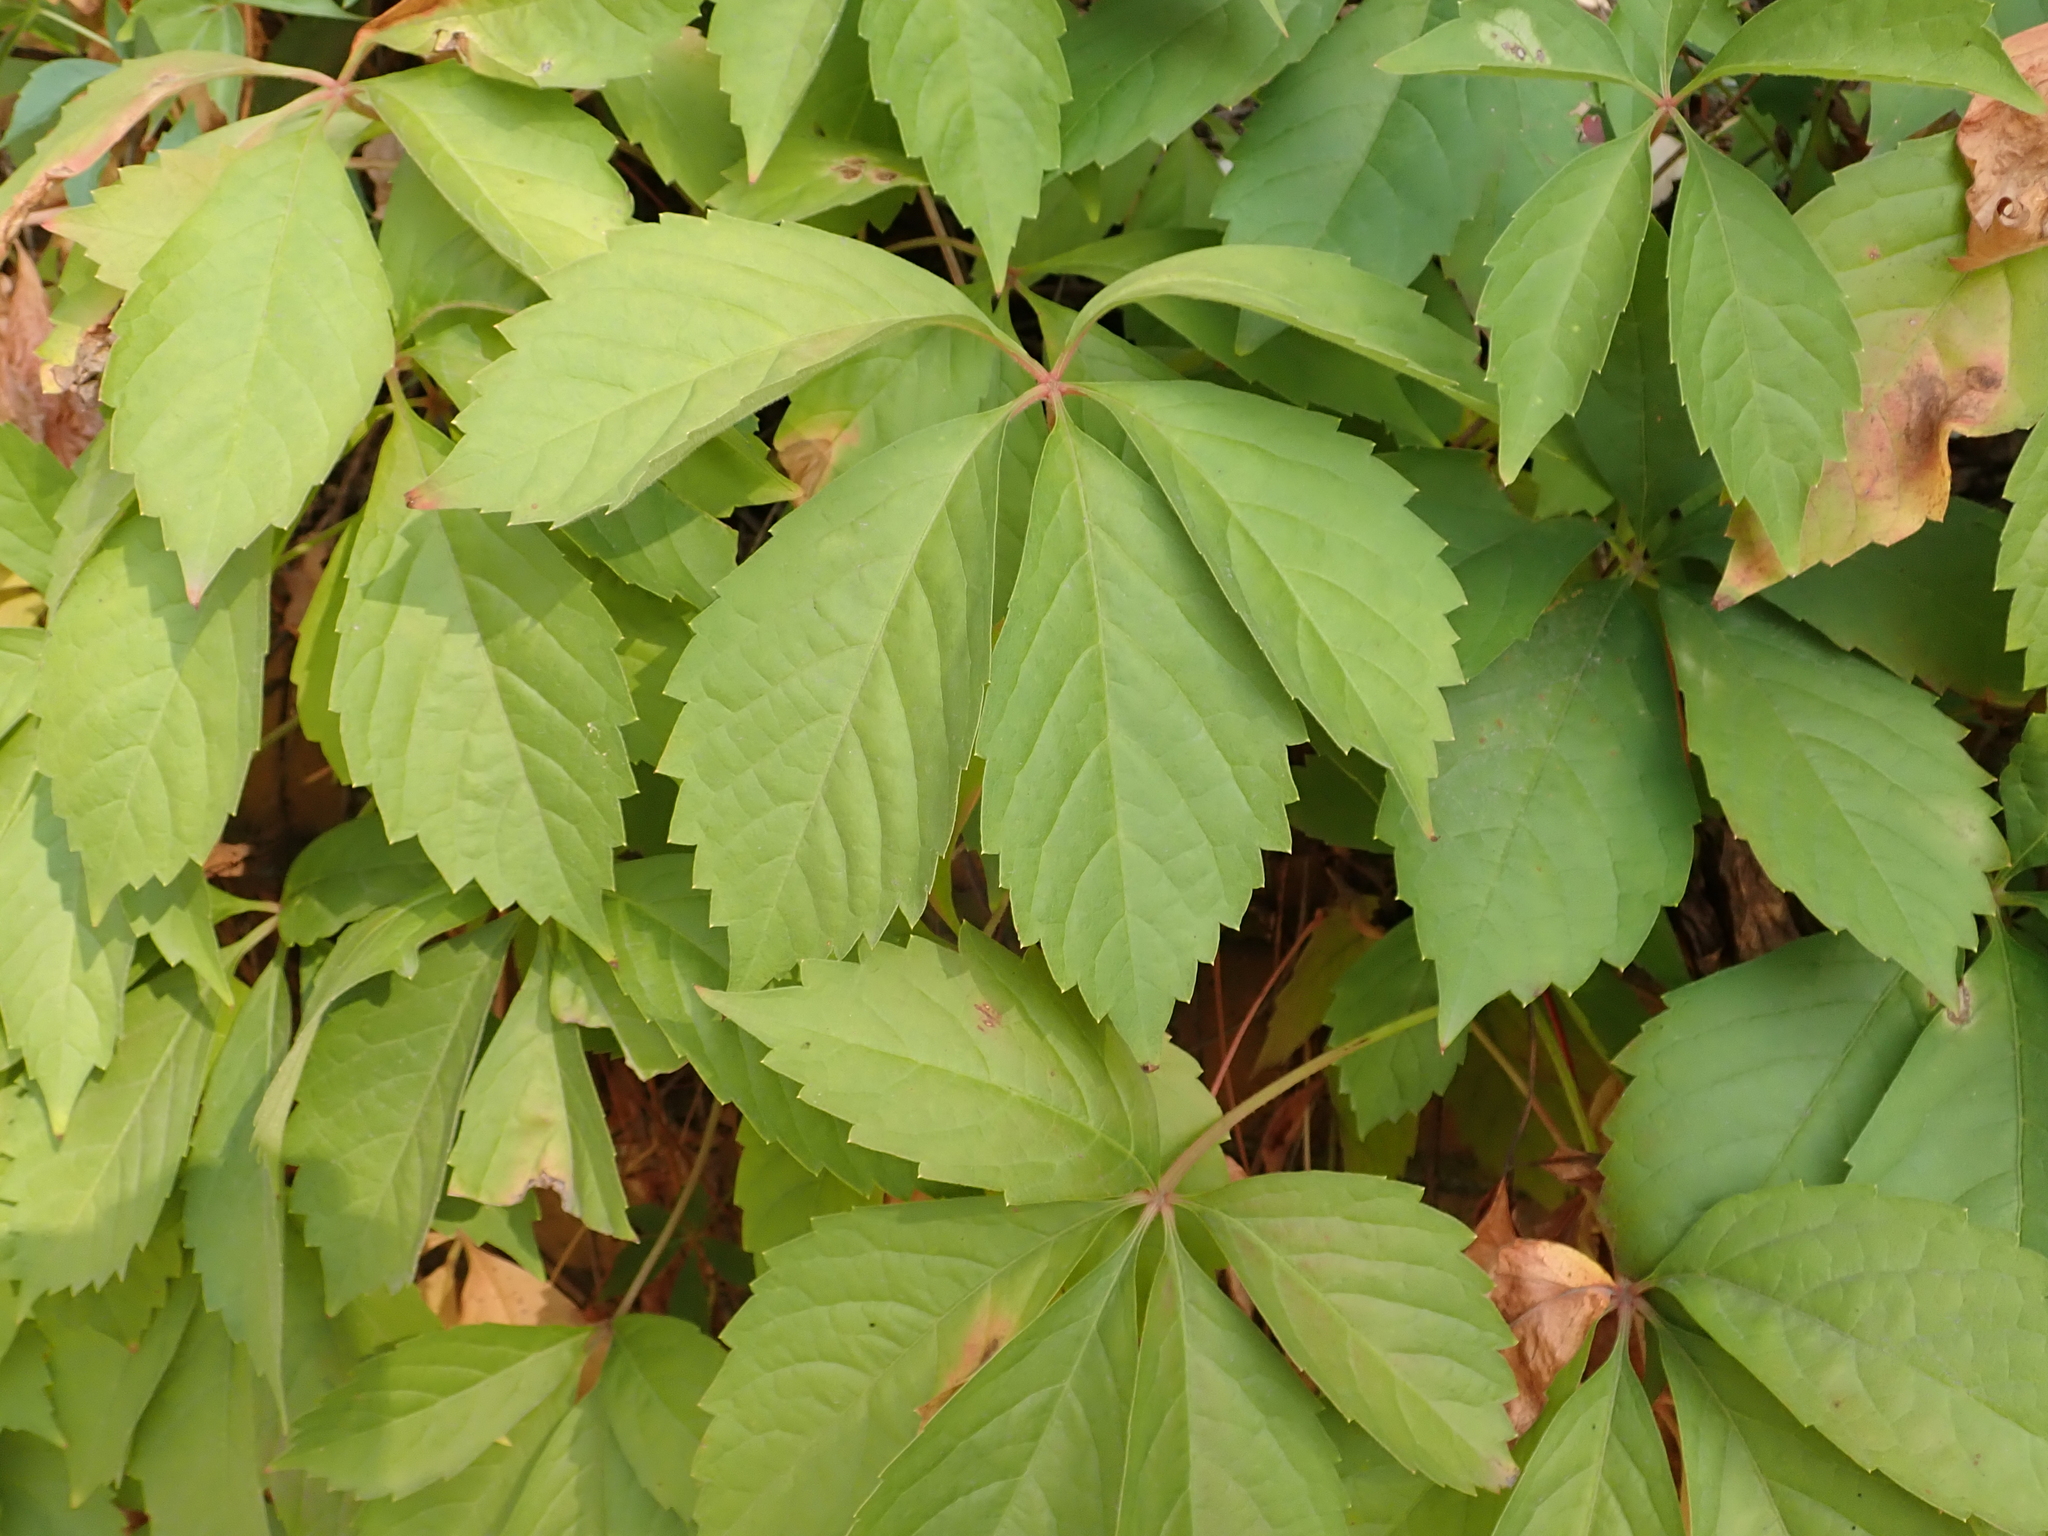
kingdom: Plantae
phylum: Tracheophyta
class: Magnoliopsida
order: Vitales
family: Vitaceae
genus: Parthenocissus
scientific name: Parthenocissus quinquefolia
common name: Virginia-creeper
